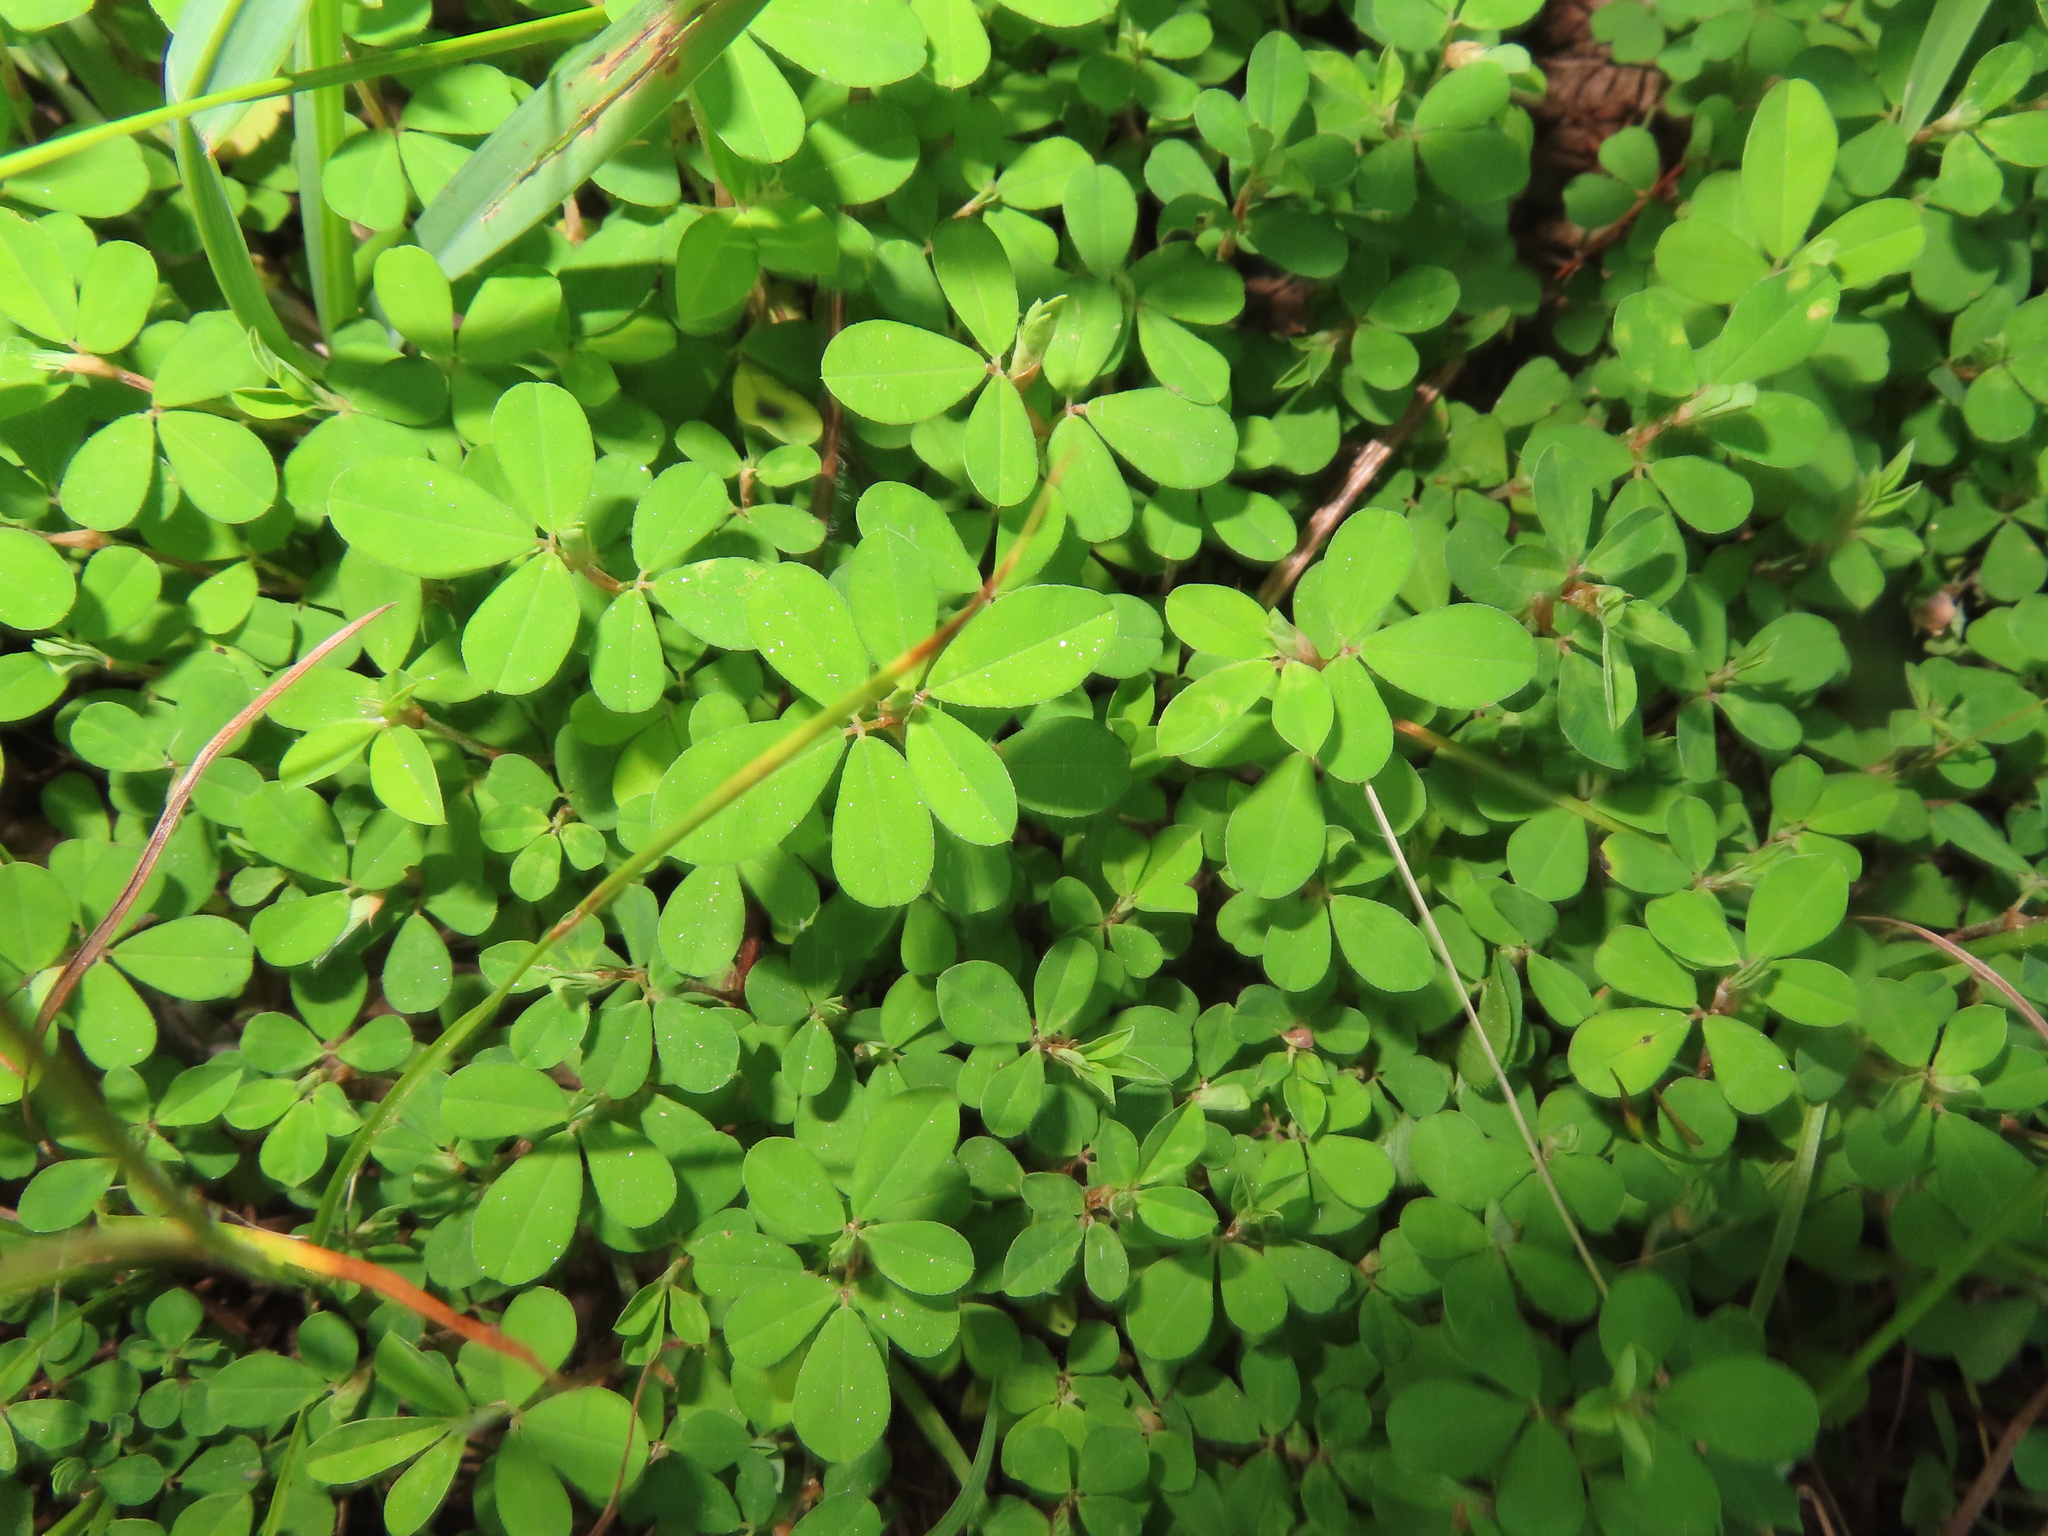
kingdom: Plantae
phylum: Tracheophyta
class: Magnoliopsida
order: Fabales
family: Fabaceae
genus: Kummerowia
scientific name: Kummerowia striata
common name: Japanese clover
